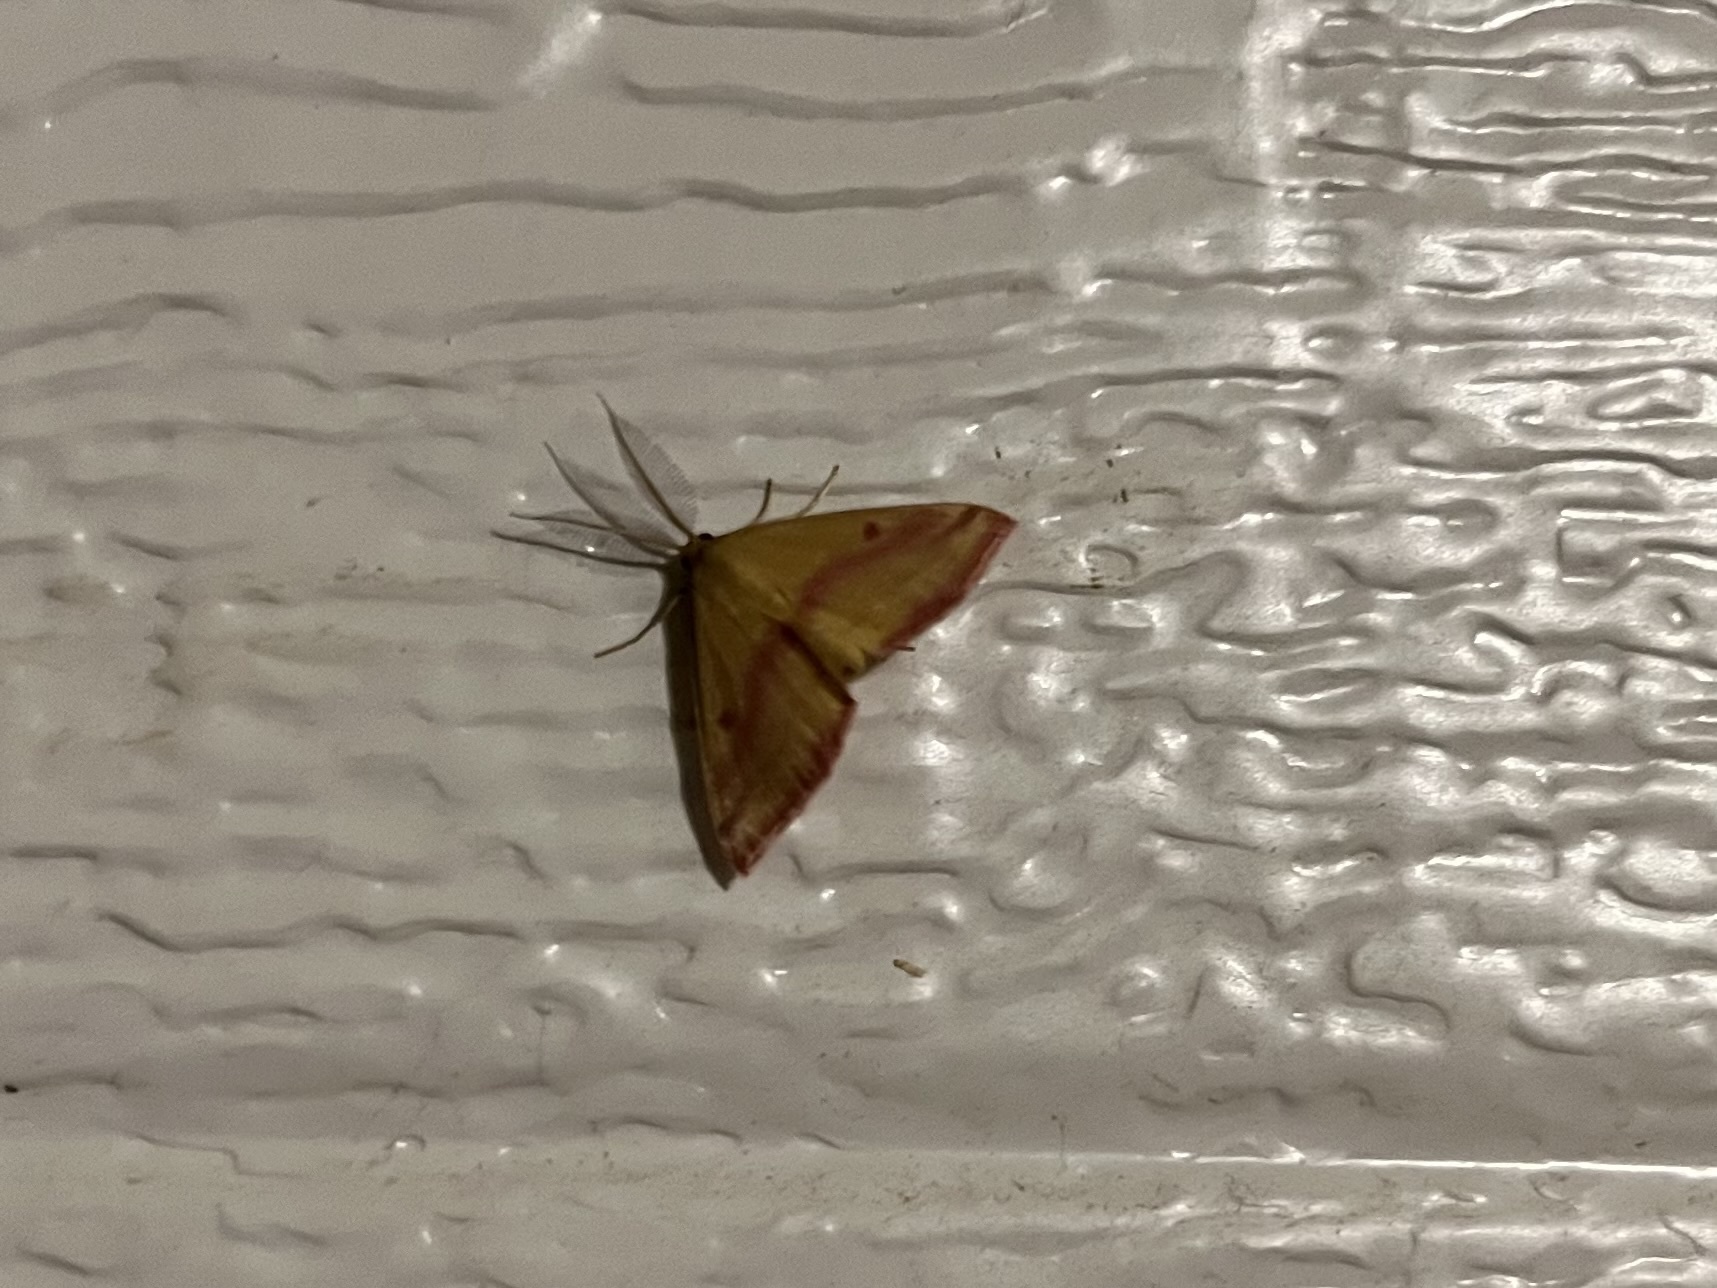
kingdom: Animalia
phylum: Arthropoda
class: Insecta
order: Lepidoptera
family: Geometridae
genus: Haematopis
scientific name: Haematopis grataria
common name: Chickweed geometer
